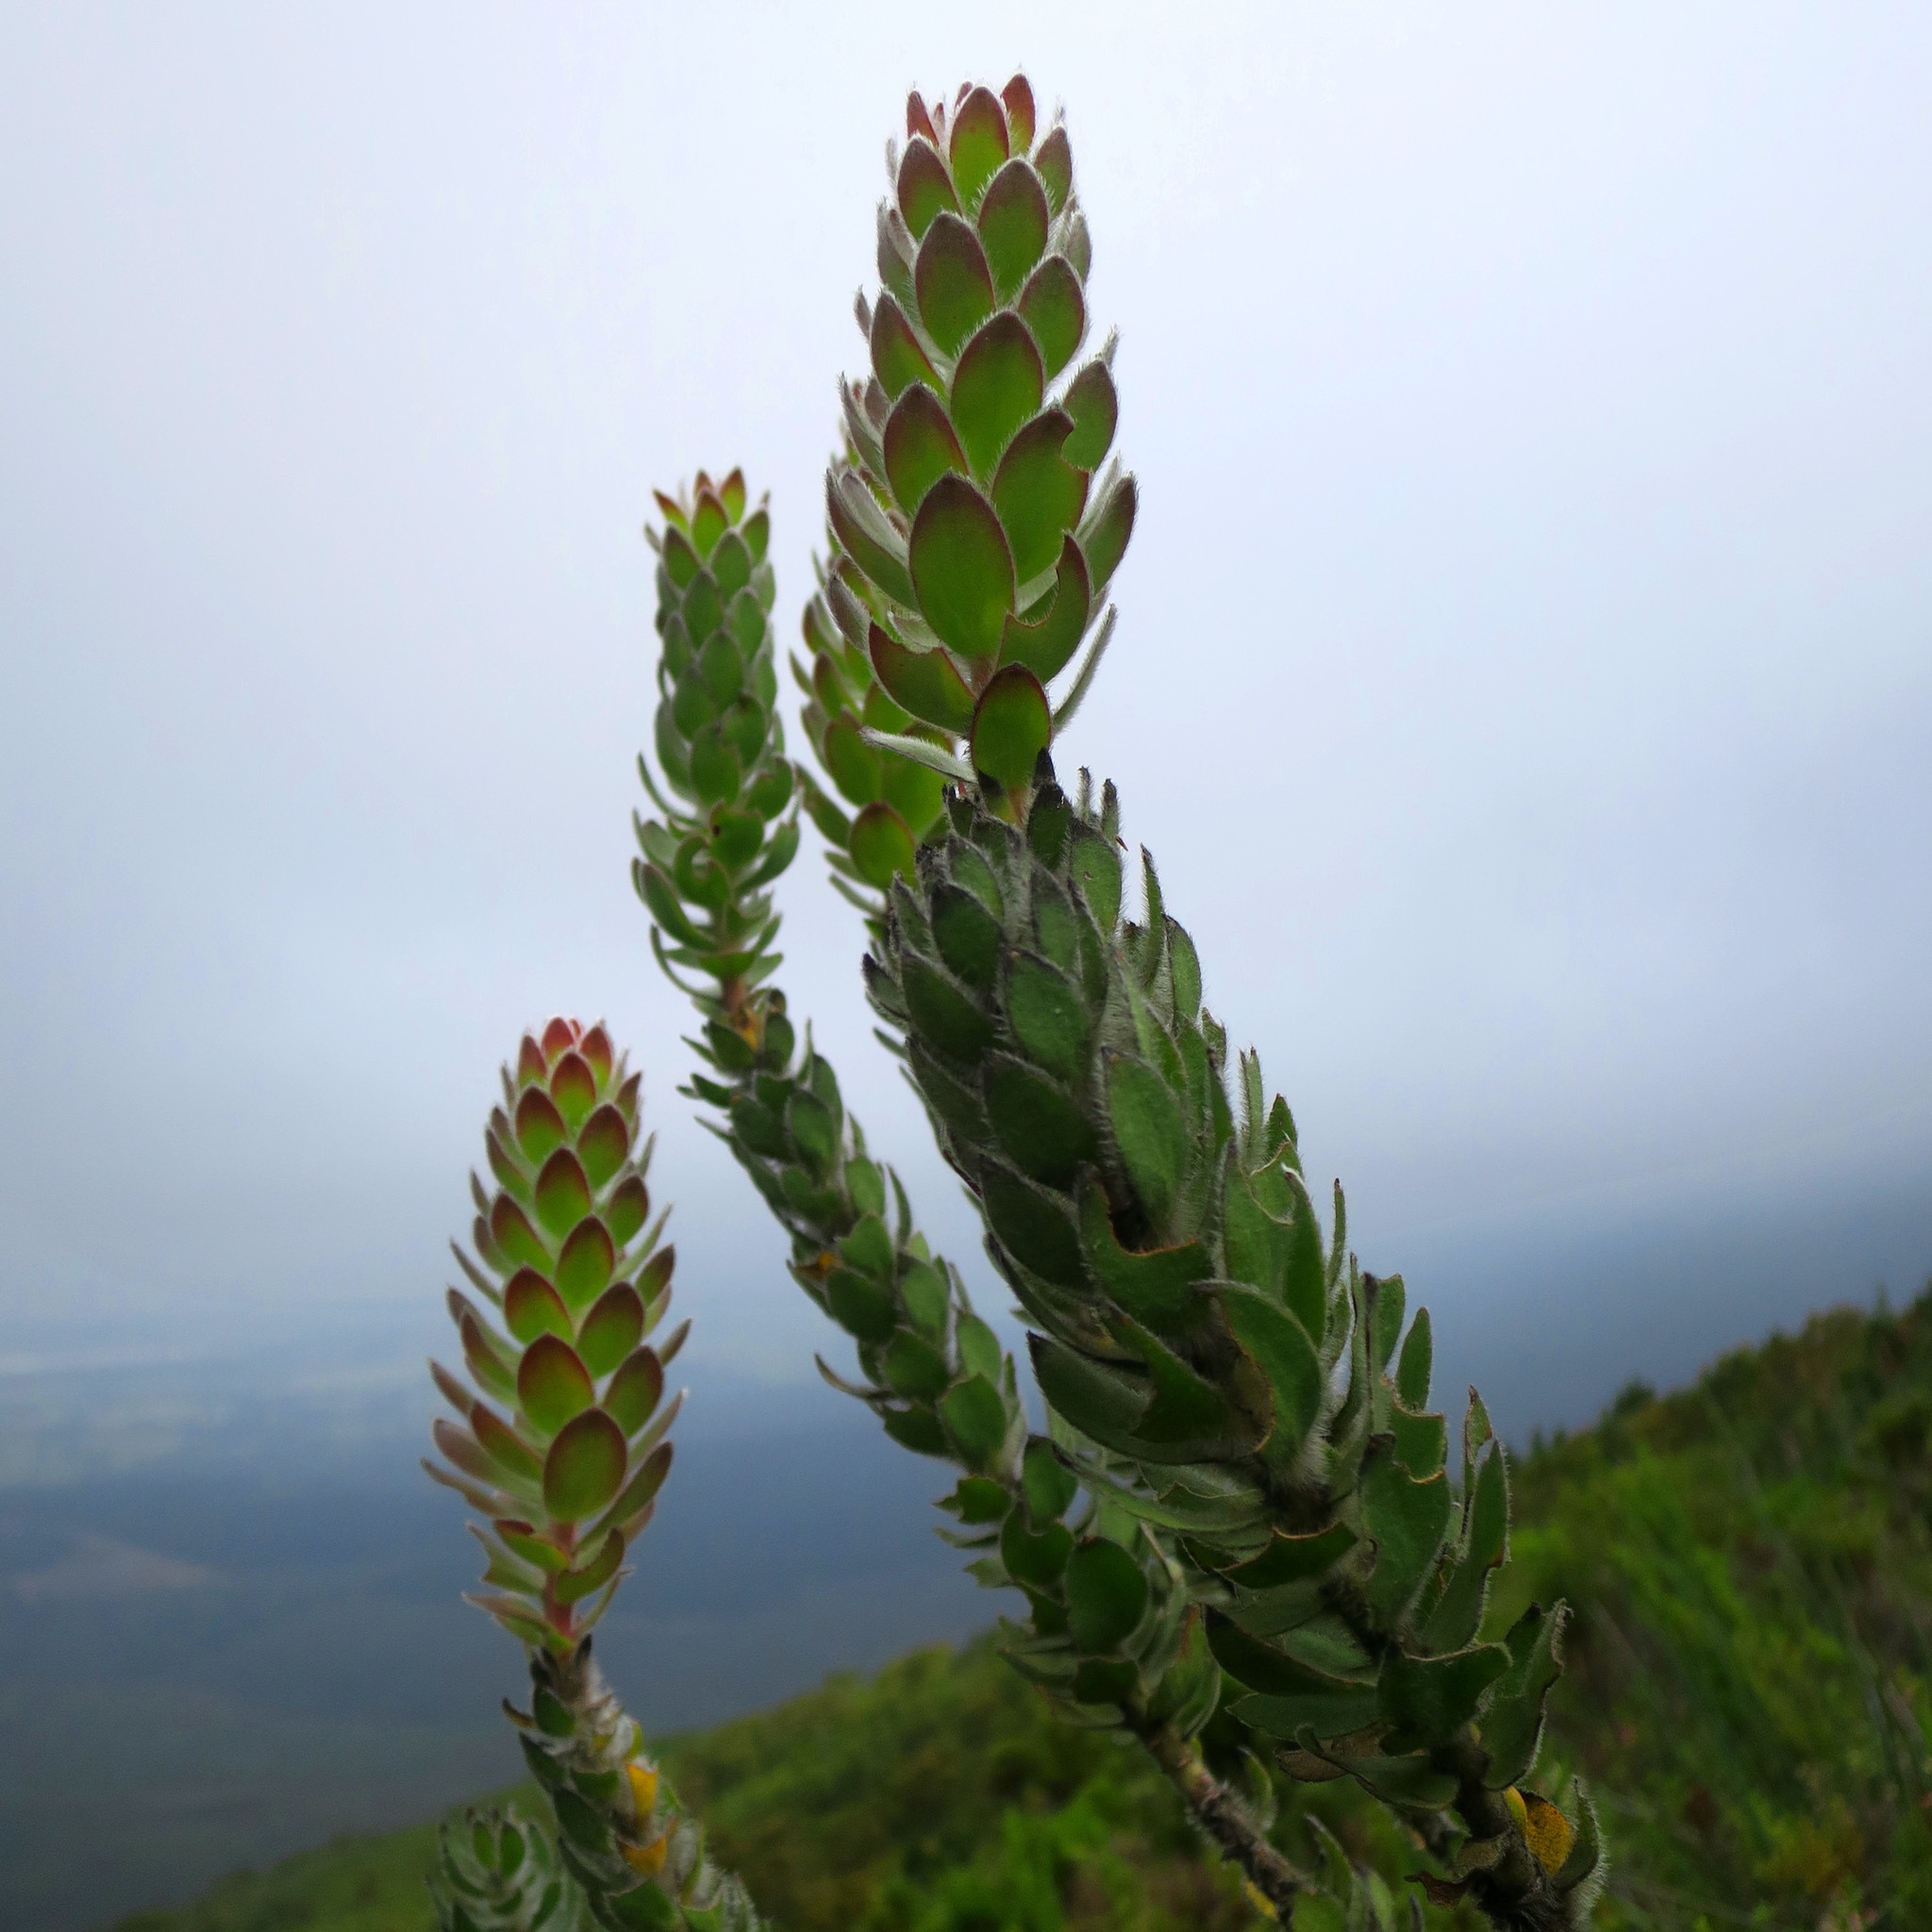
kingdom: Plantae
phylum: Tracheophyta
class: Magnoliopsida
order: Proteales
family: Proteaceae
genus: Mimetes
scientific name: Mimetes pauciflora
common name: Three-flowered pagoda
